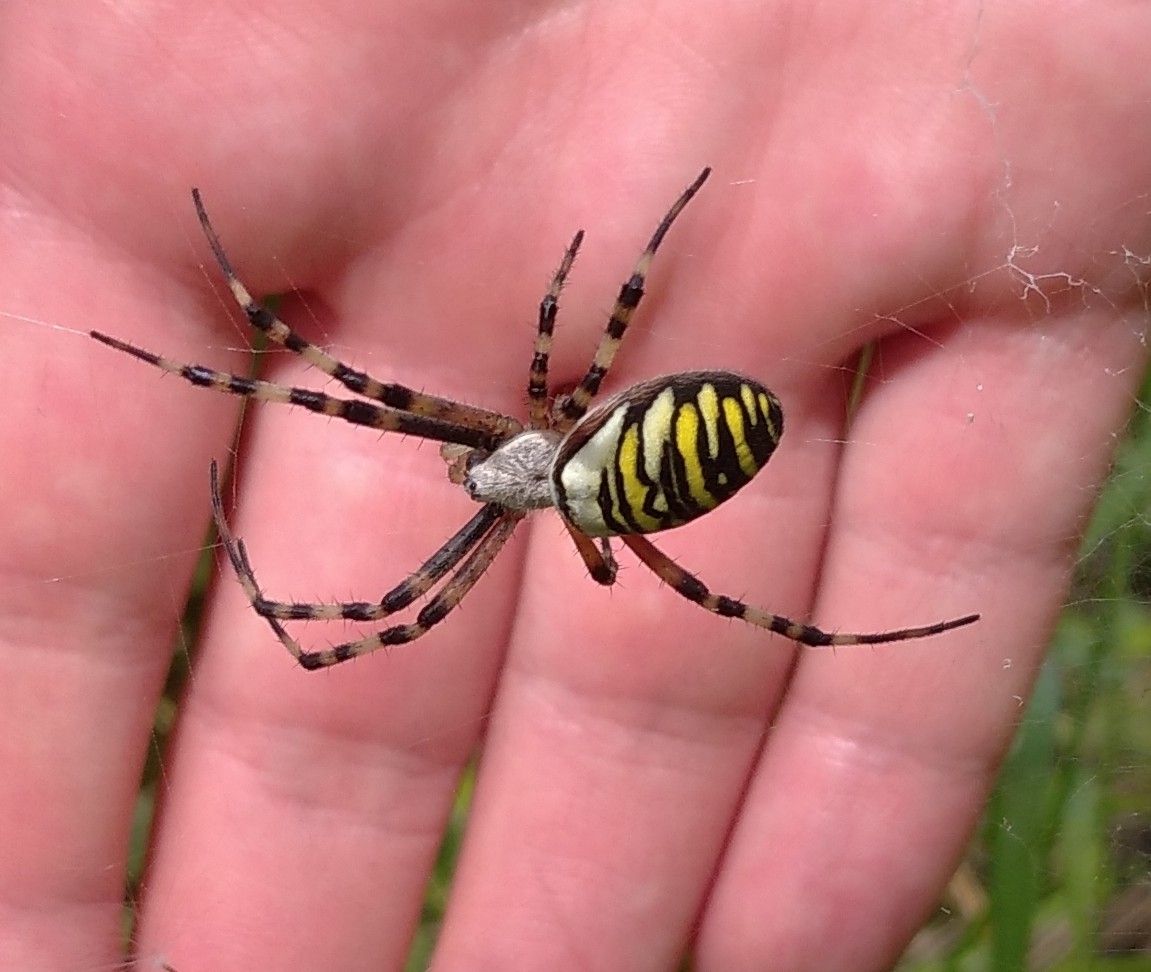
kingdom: Animalia
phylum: Arthropoda
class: Arachnida
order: Araneae
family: Araneidae
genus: Argiope
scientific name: Argiope bruennichi
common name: Wasp spider
